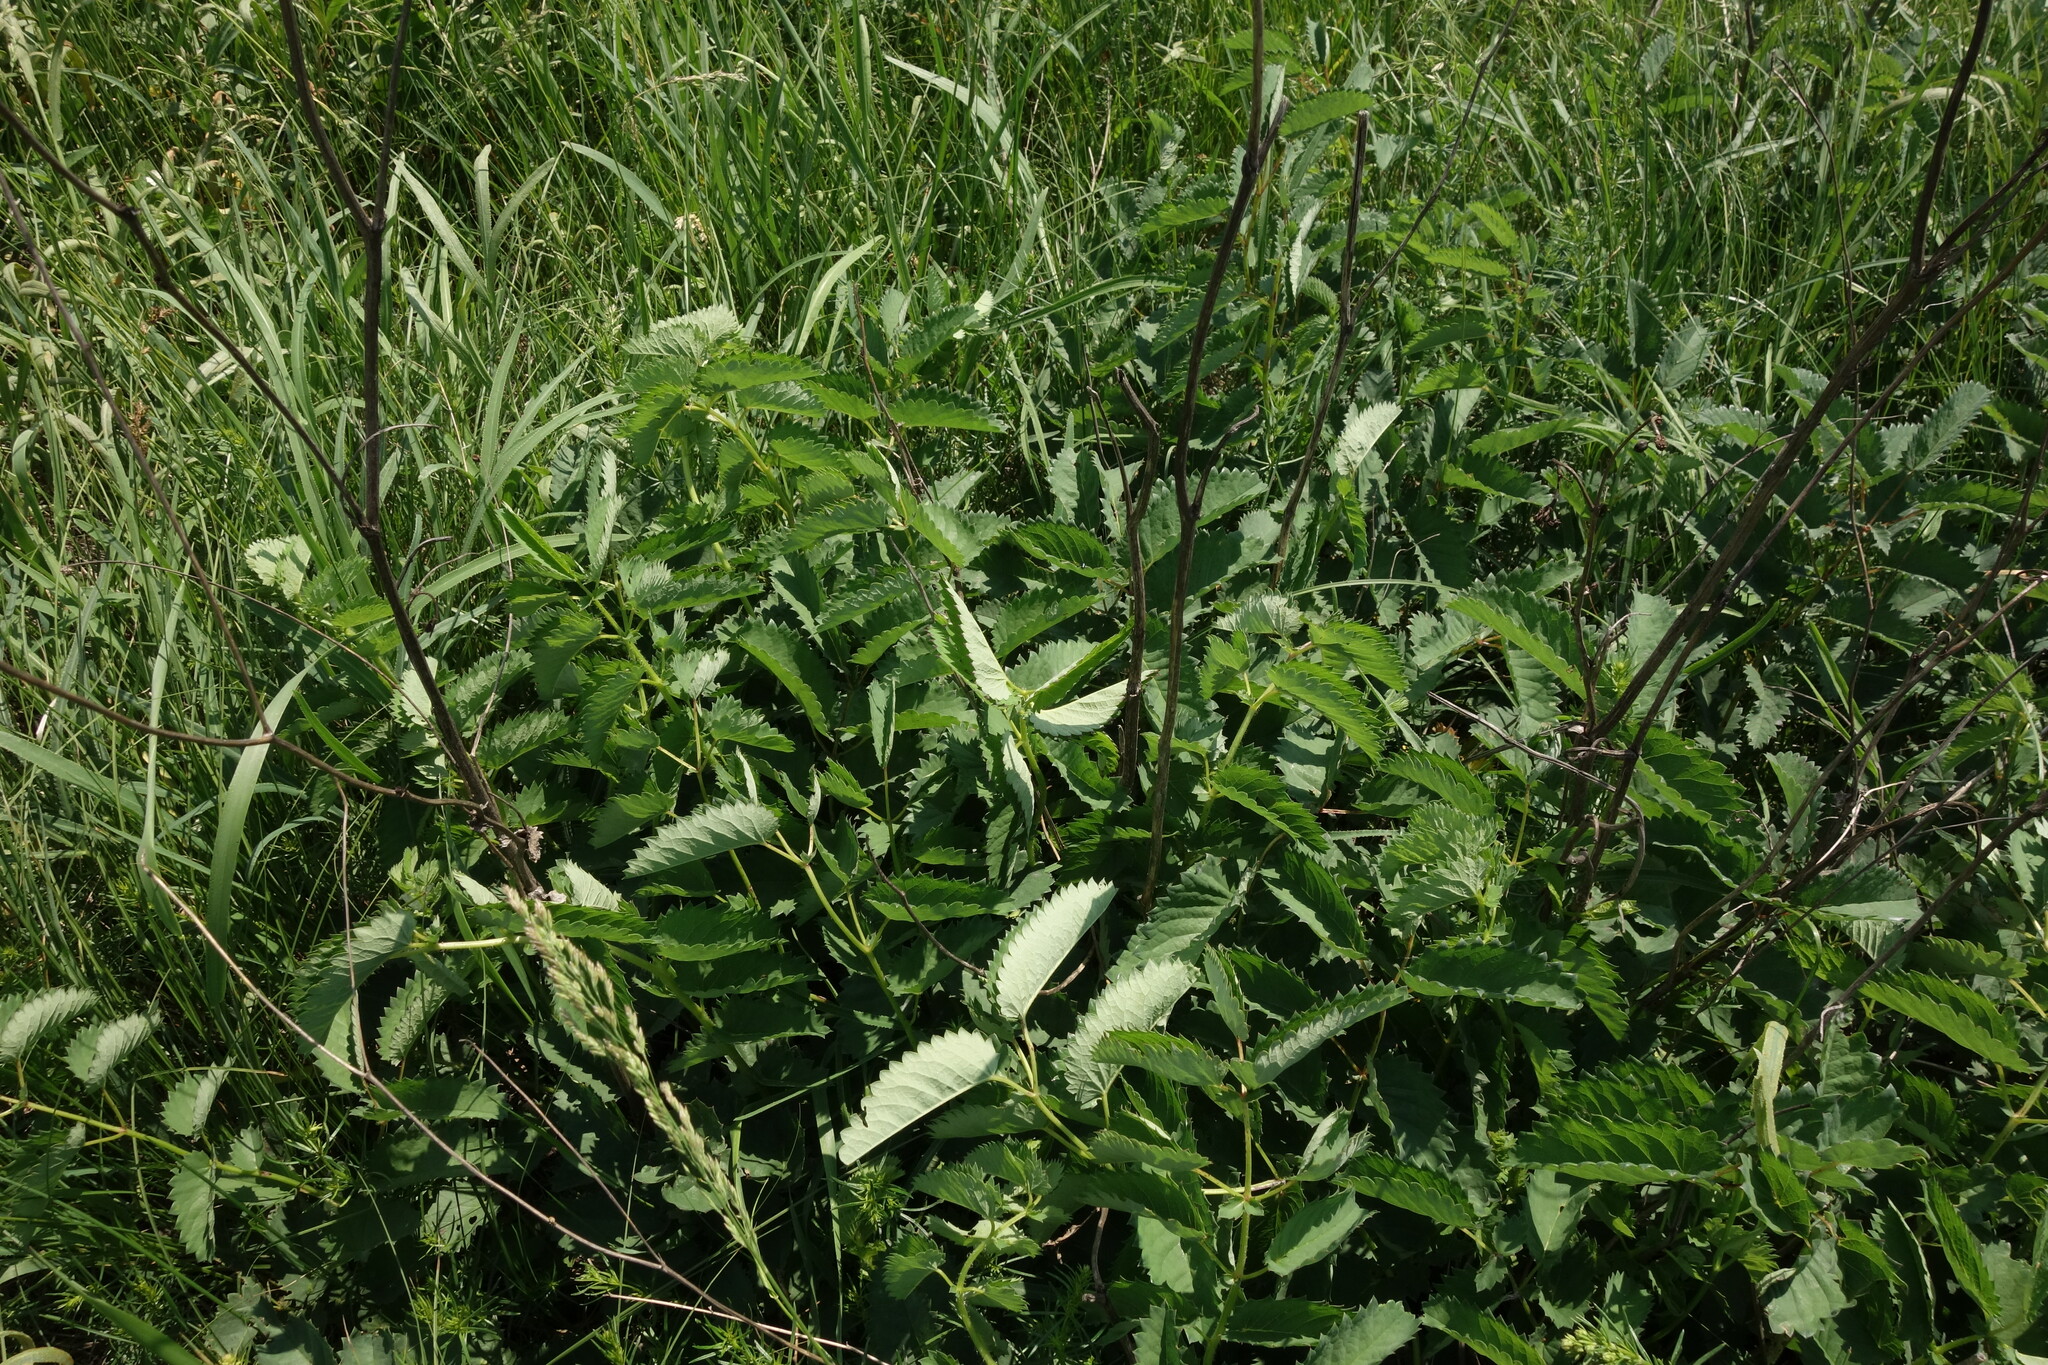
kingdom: Plantae
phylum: Tracheophyta
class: Magnoliopsida
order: Rosales
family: Rosaceae
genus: Sanguisorba
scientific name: Sanguisorba officinalis
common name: Great burnet
